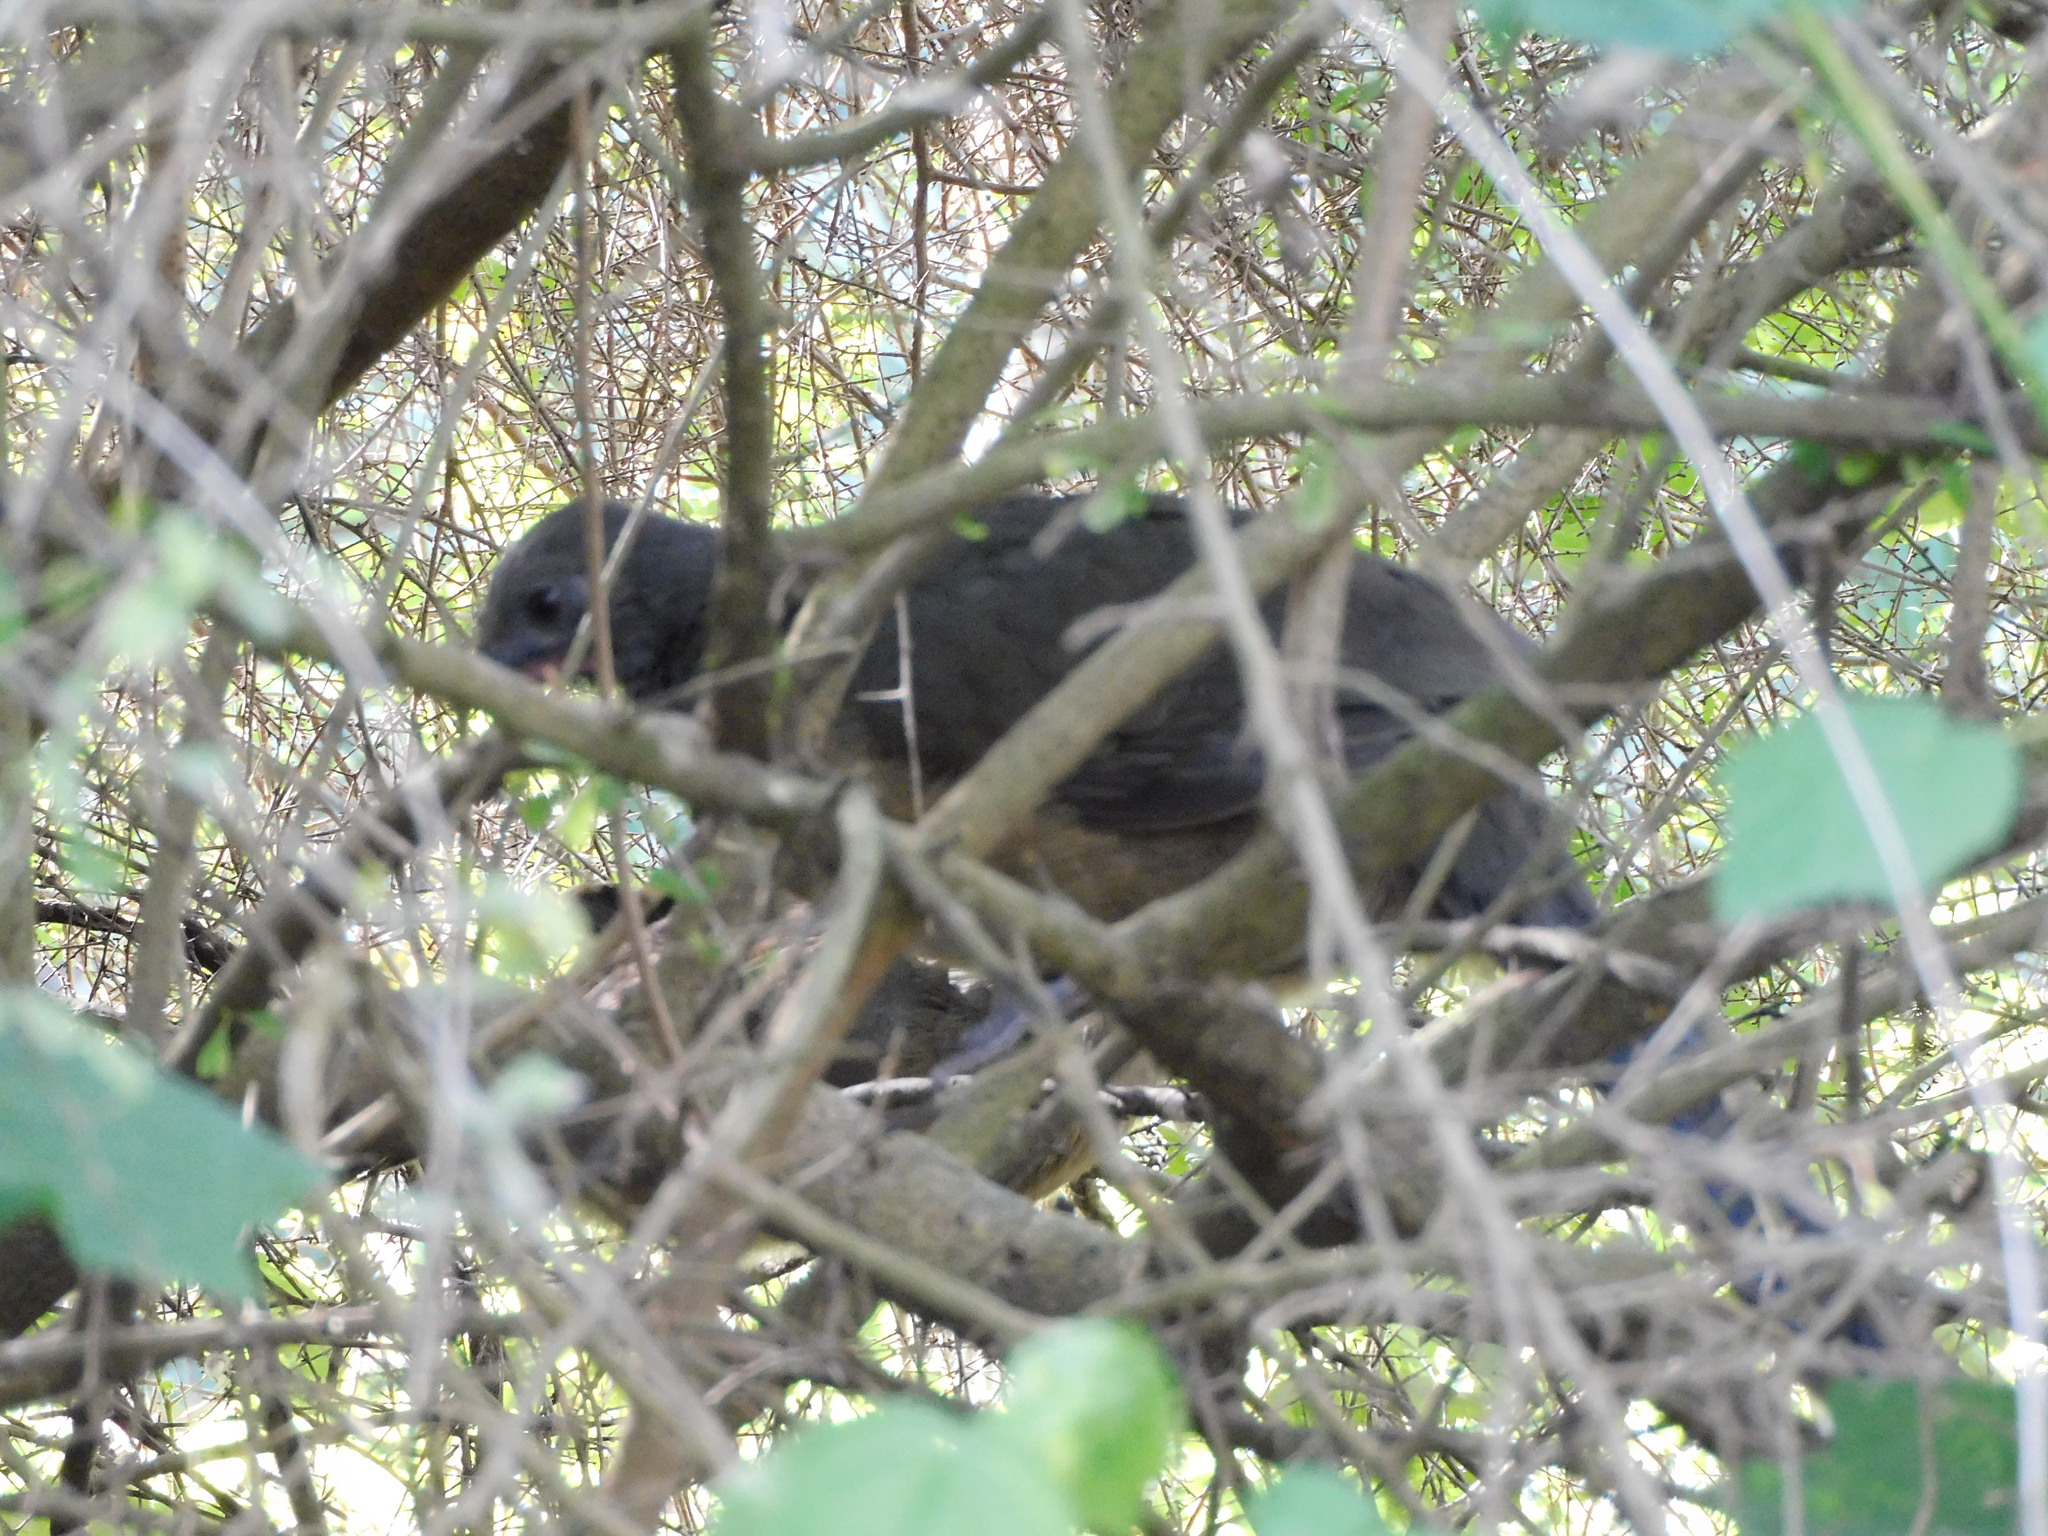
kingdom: Animalia
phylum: Chordata
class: Aves
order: Galliformes
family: Cracidae
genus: Ortalis
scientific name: Ortalis vetula
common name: Plain chachalaca
